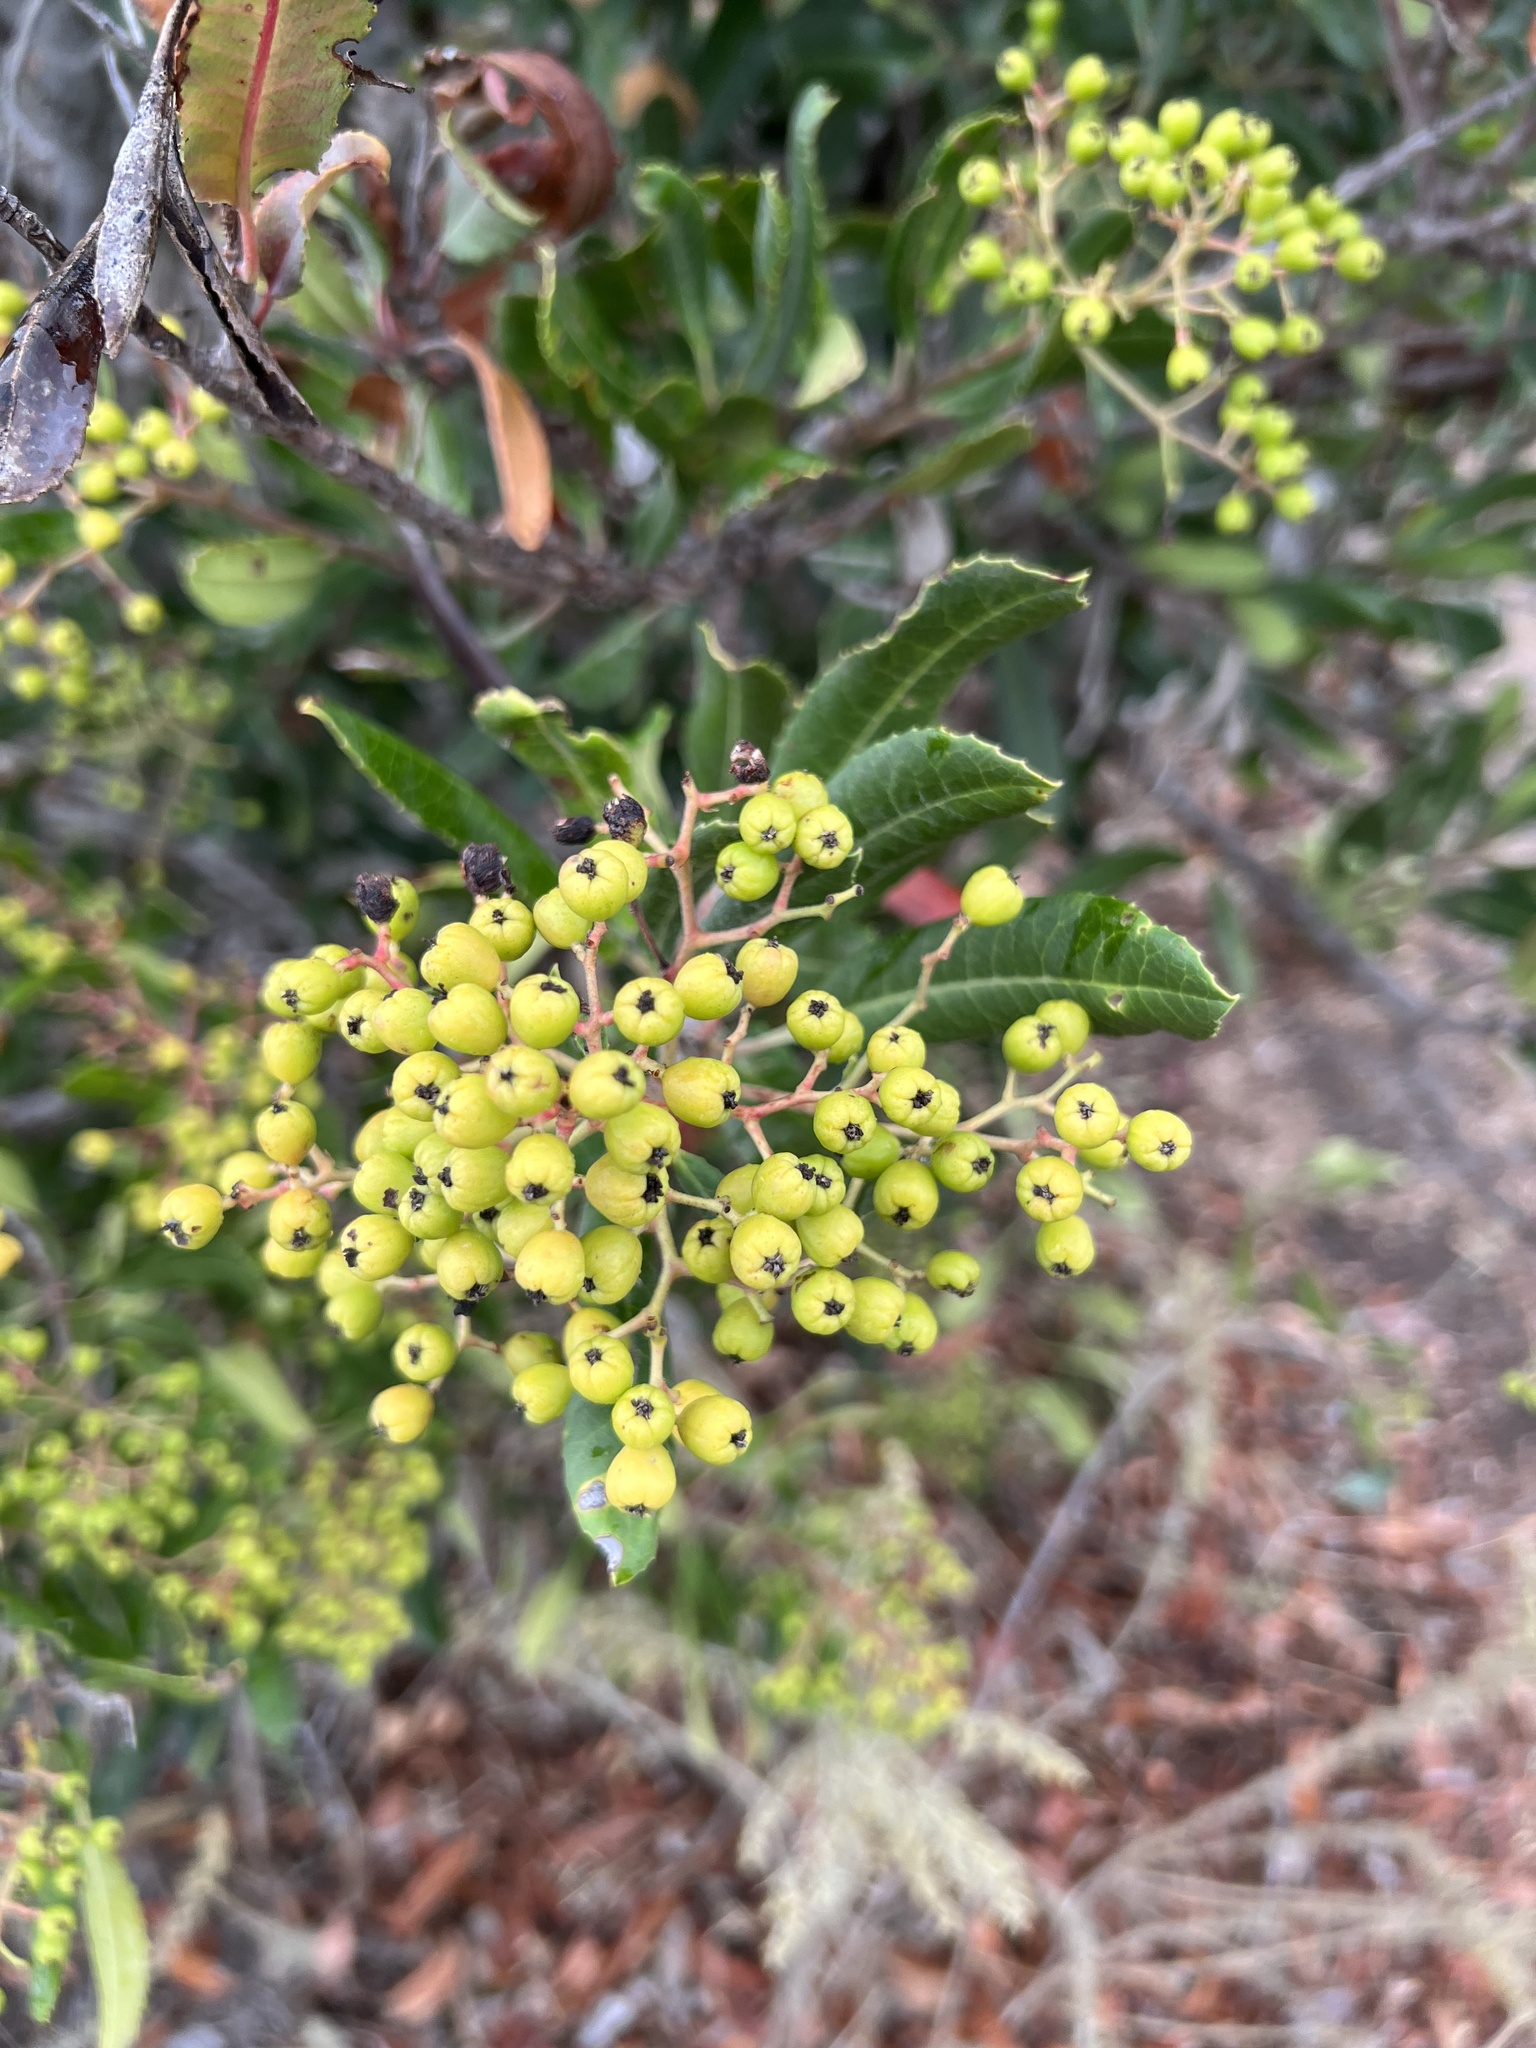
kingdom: Plantae
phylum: Tracheophyta
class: Magnoliopsida
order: Rosales
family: Rosaceae
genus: Heteromeles
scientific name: Heteromeles arbutifolia
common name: California-holly
